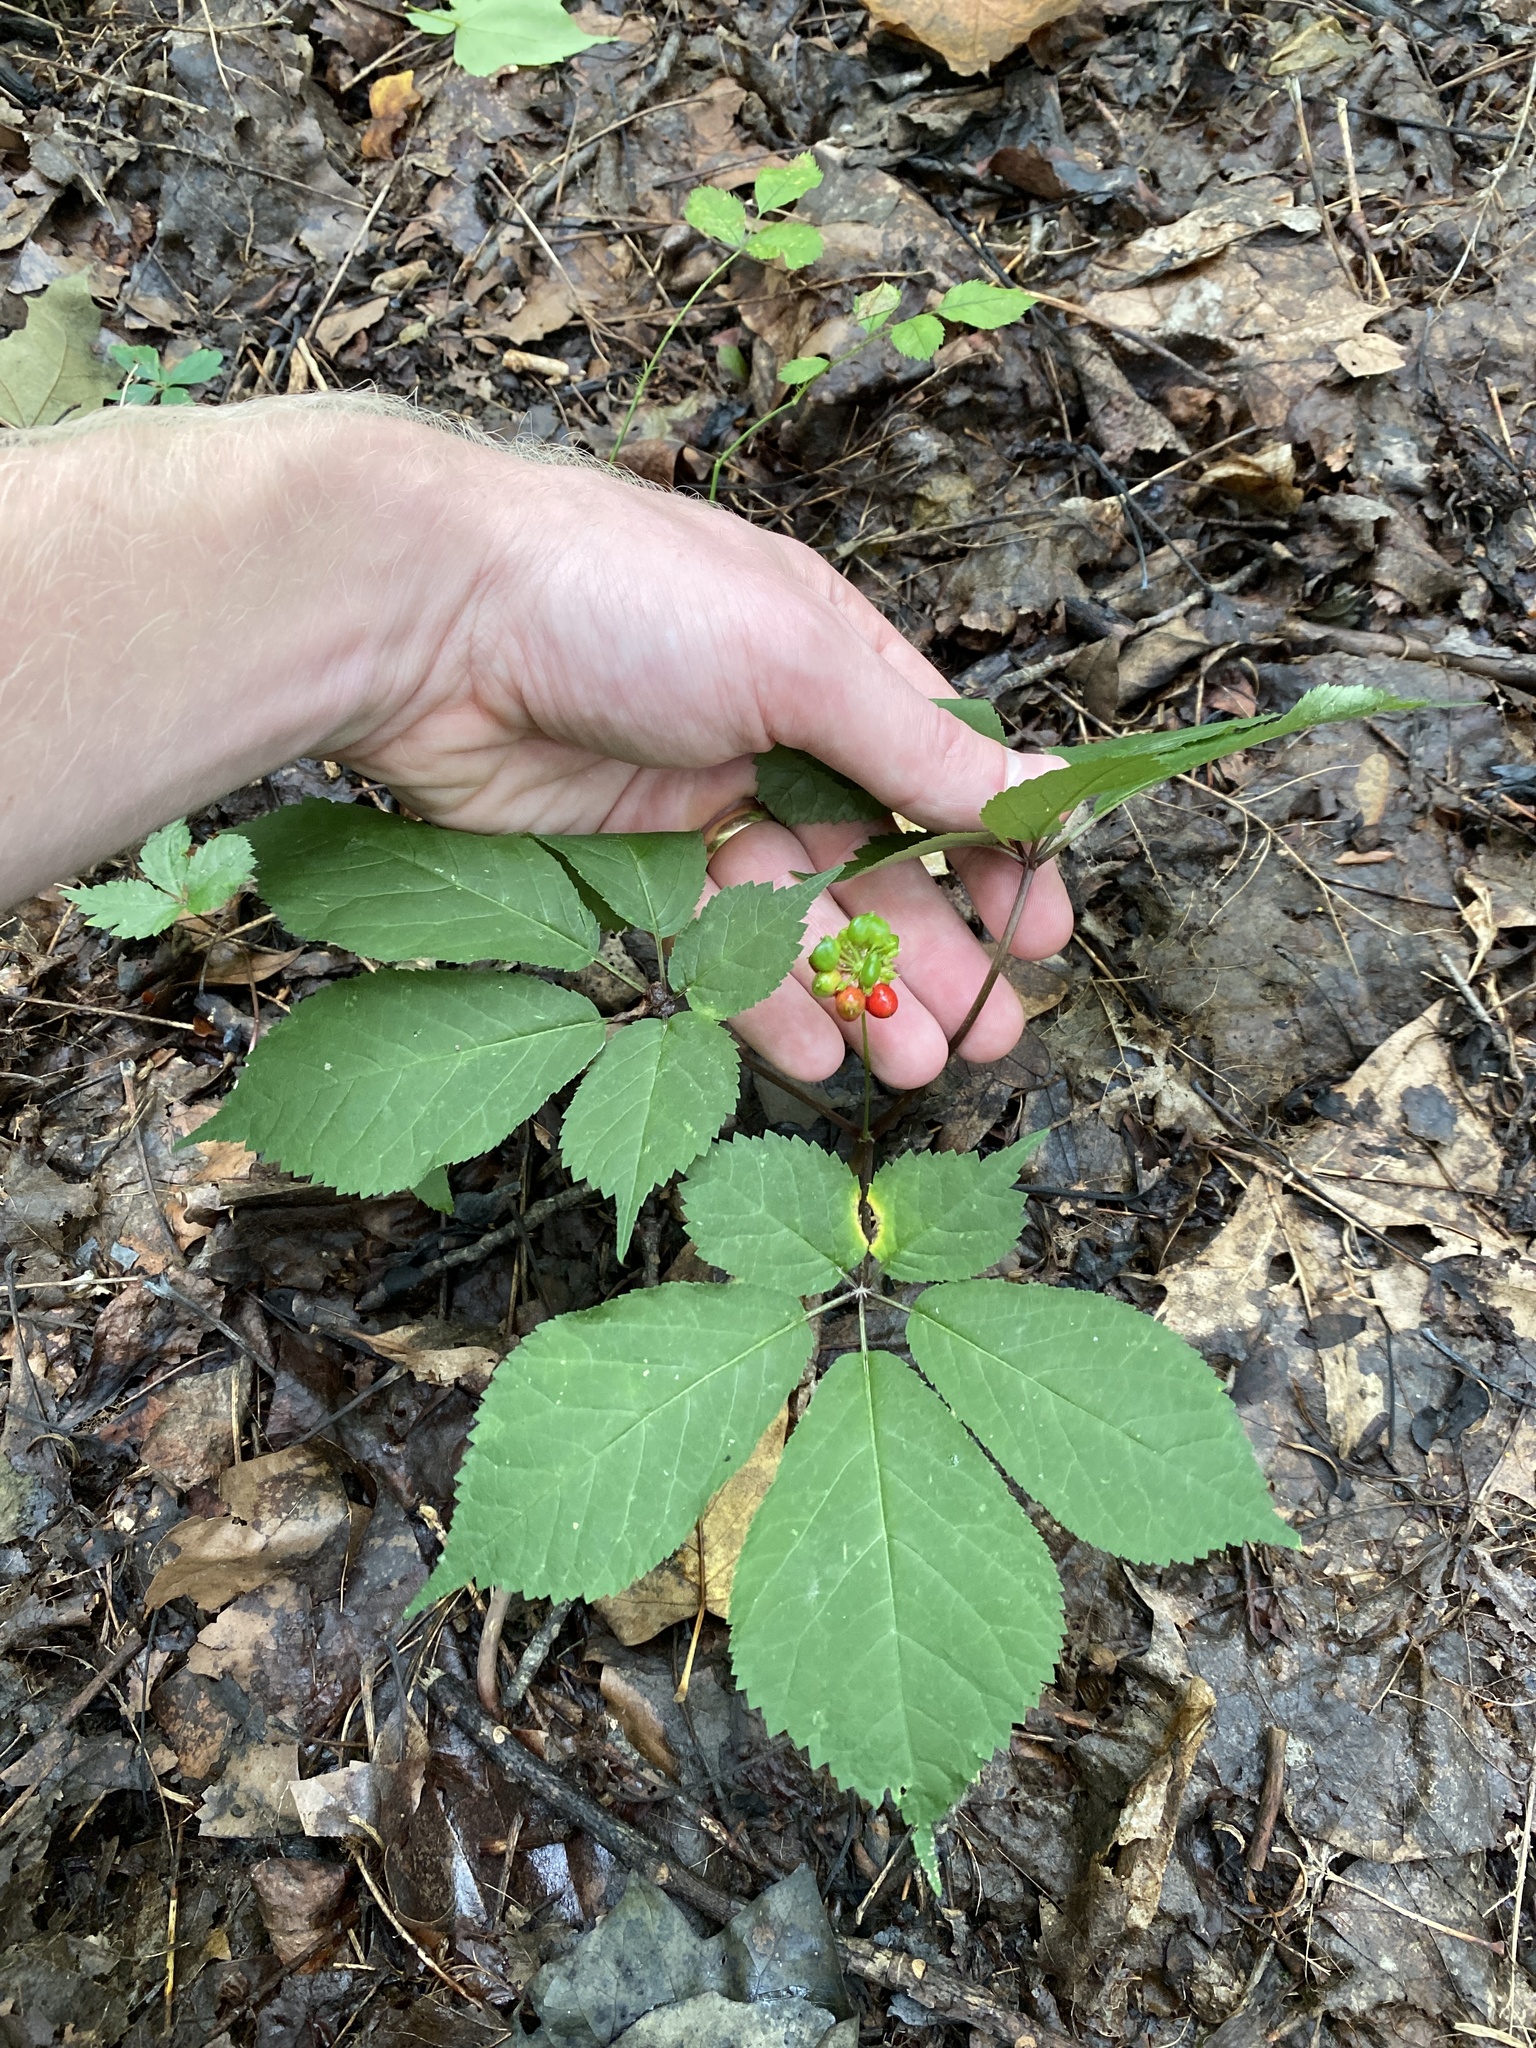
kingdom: Plantae
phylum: Tracheophyta
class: Magnoliopsida
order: Apiales
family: Araliaceae
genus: Panax
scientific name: Panax quinquefolius
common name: American ginseng
